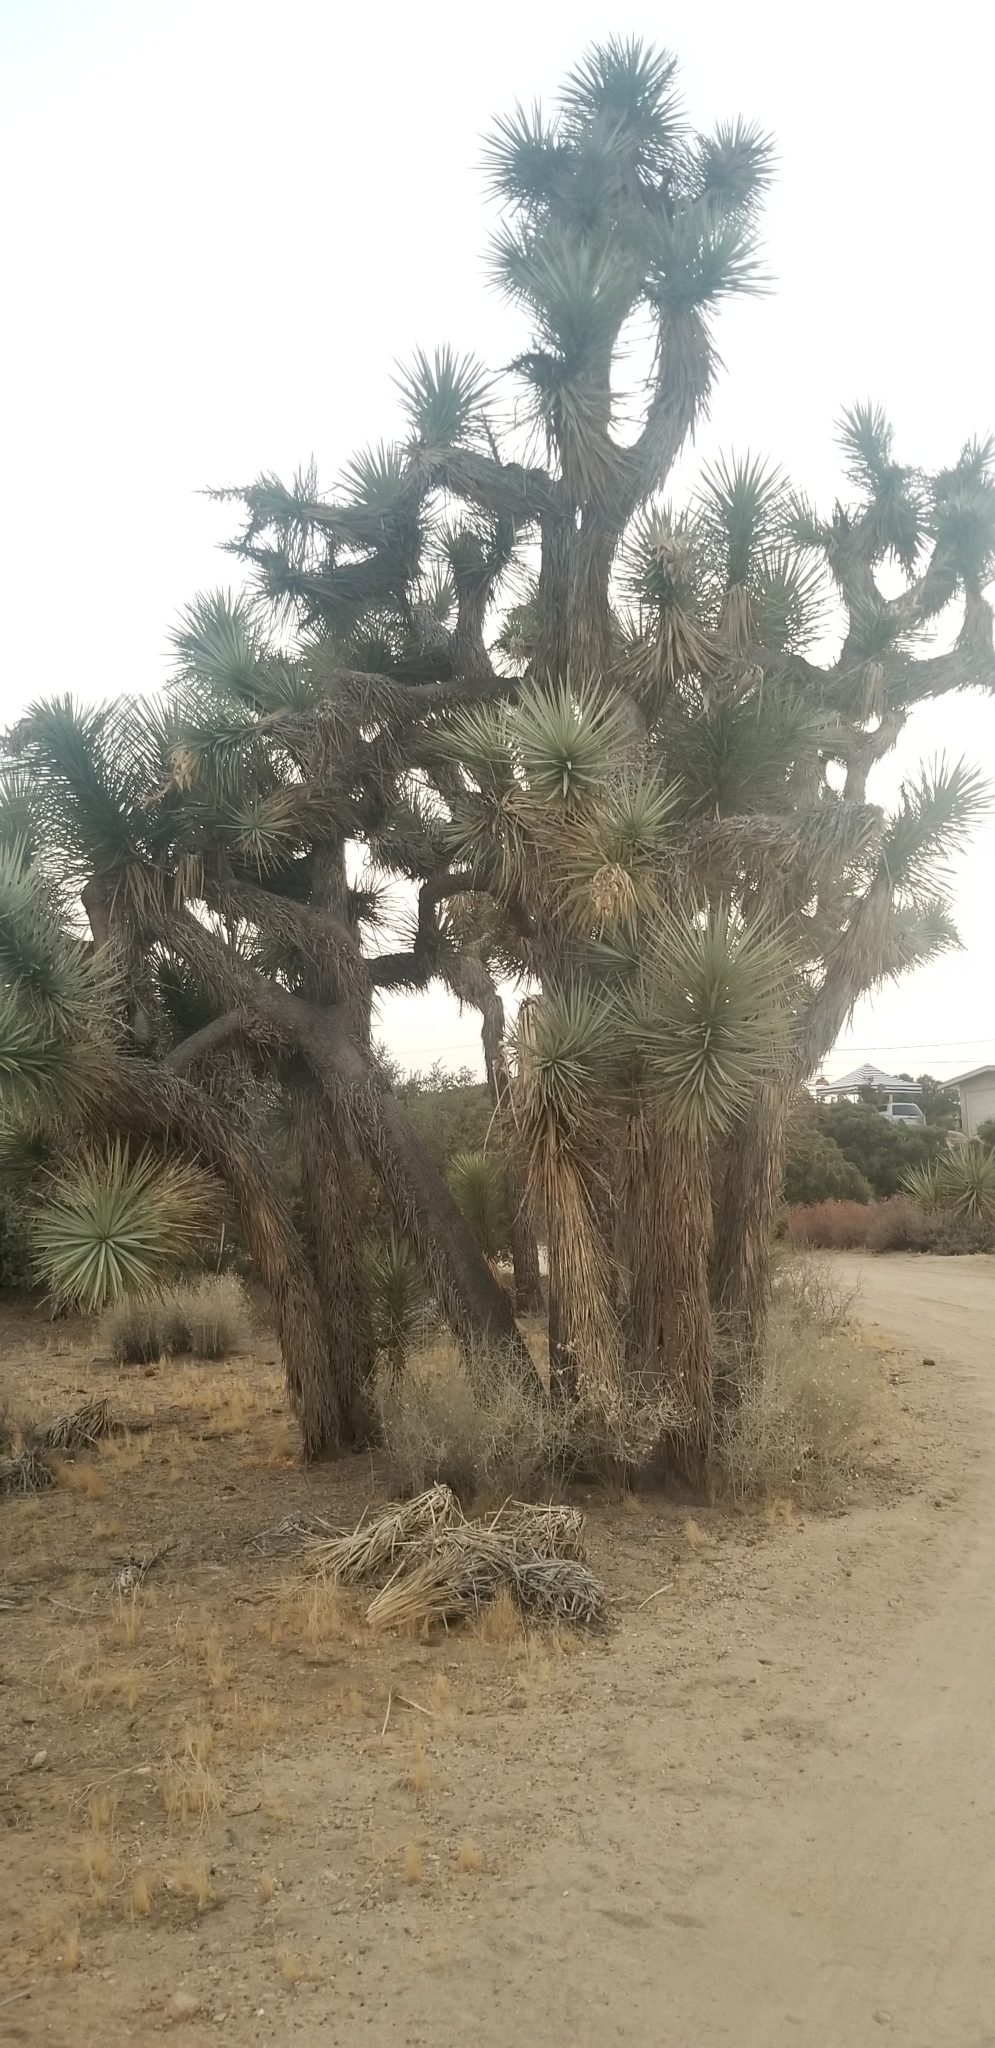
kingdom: Plantae
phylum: Tracheophyta
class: Liliopsida
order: Asparagales
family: Asparagaceae
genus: Yucca
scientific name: Yucca brevifolia
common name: Joshua tree
